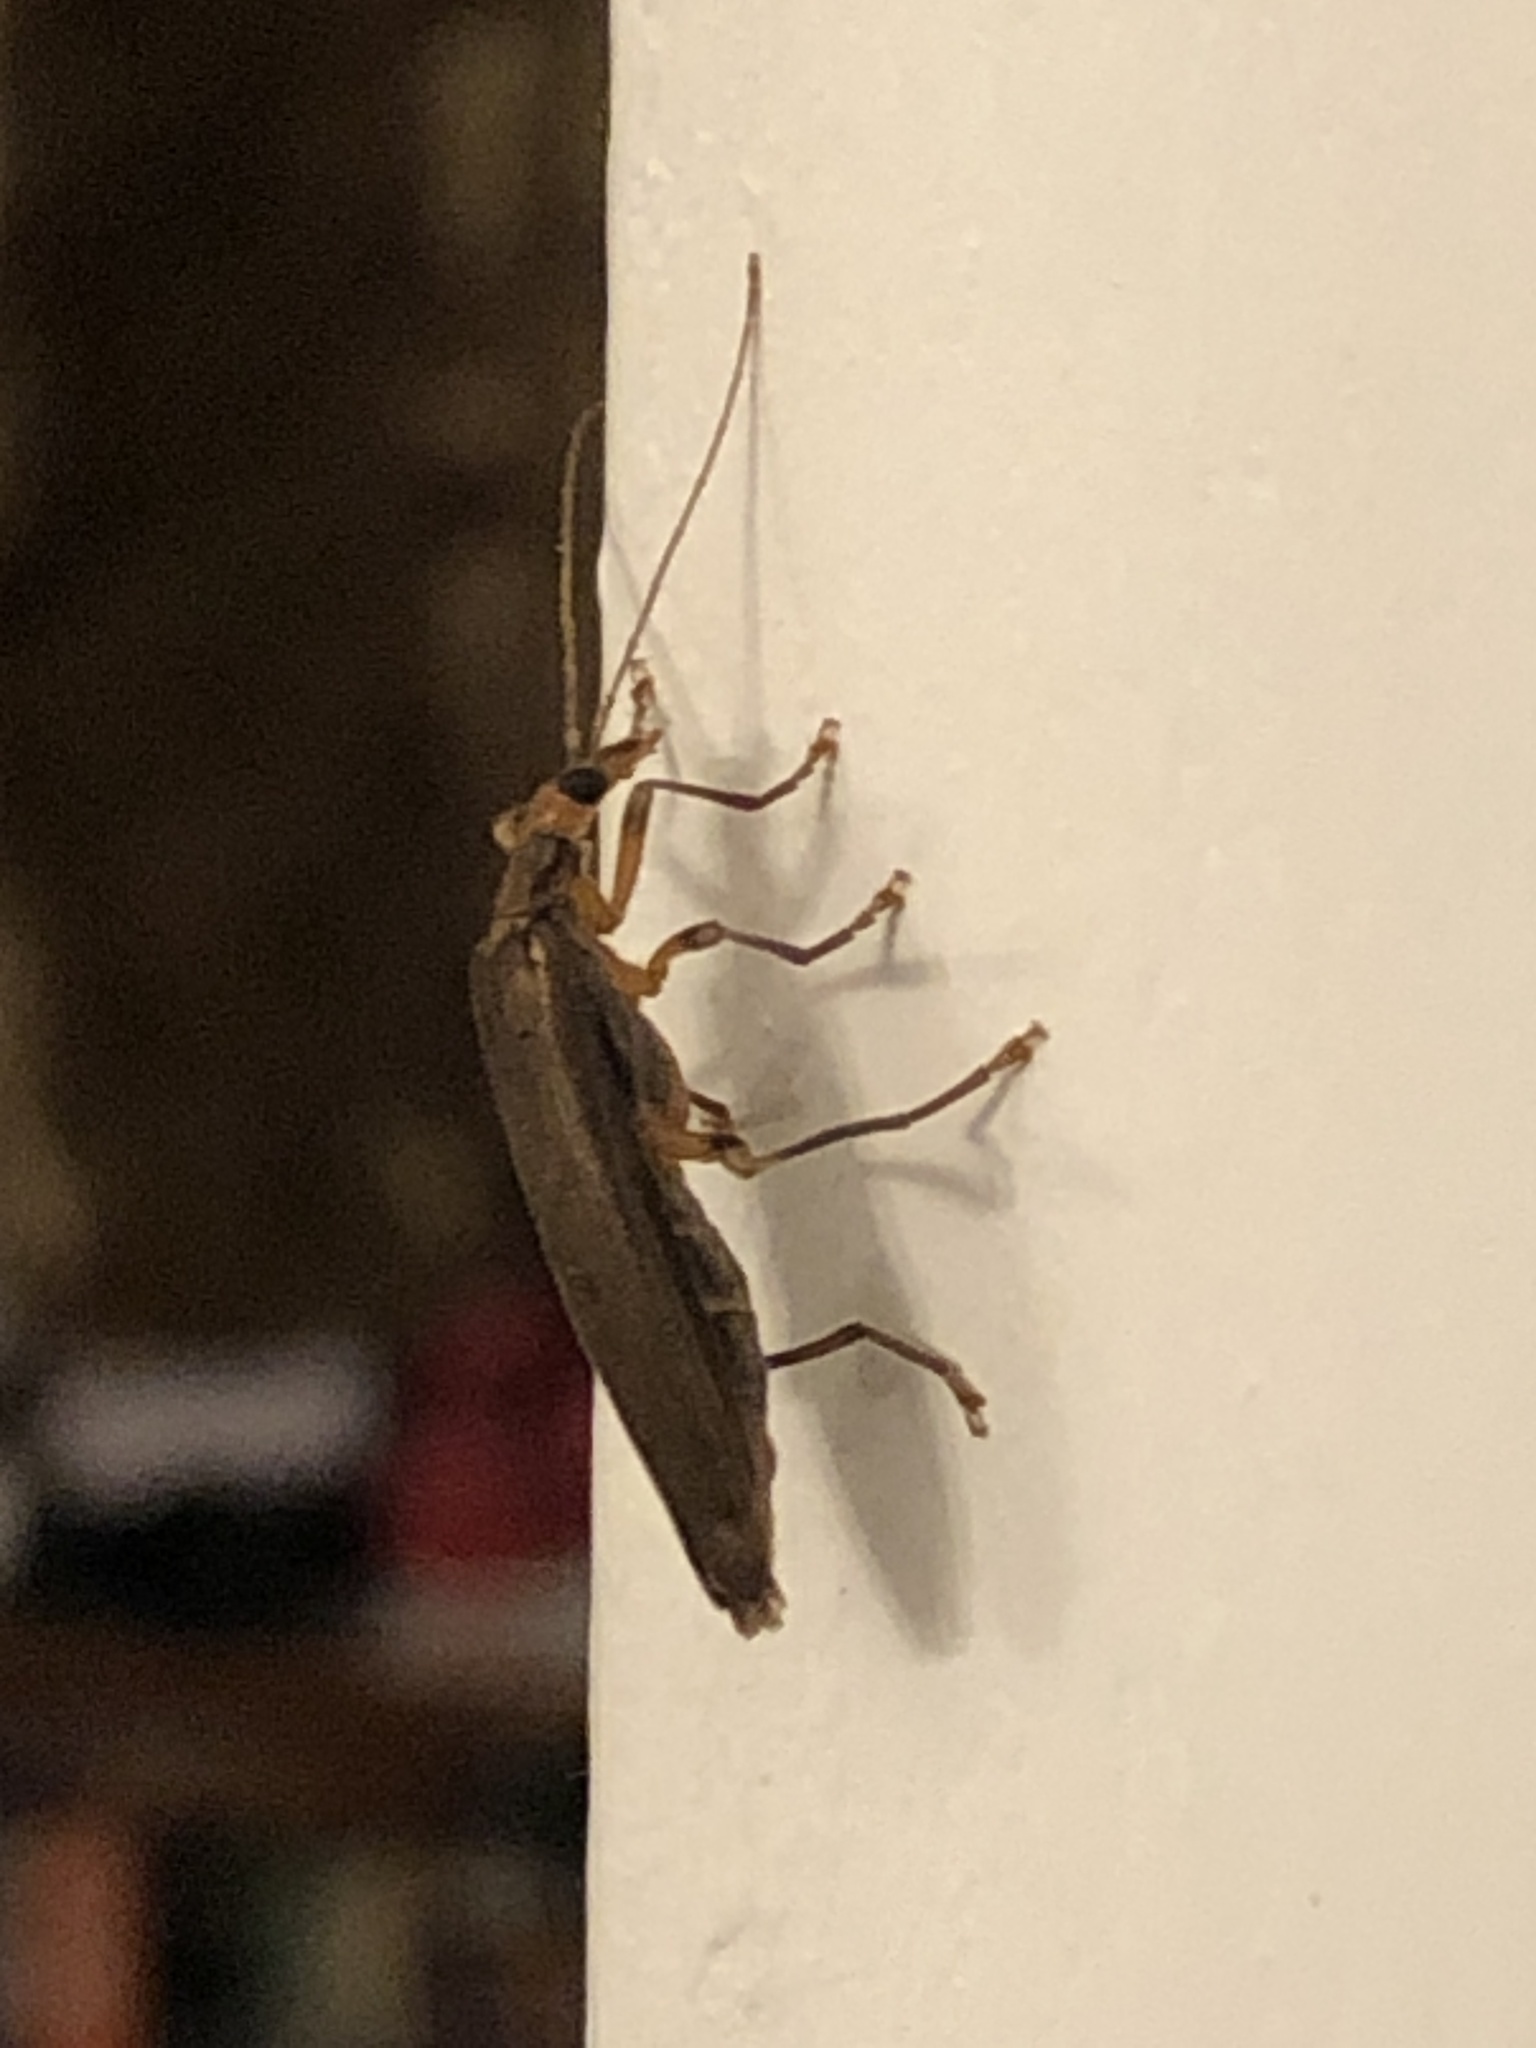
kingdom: Animalia
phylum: Arthropoda
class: Insecta
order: Coleoptera
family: Oedemeridae
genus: Oedemera
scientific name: Oedemera femoralis
